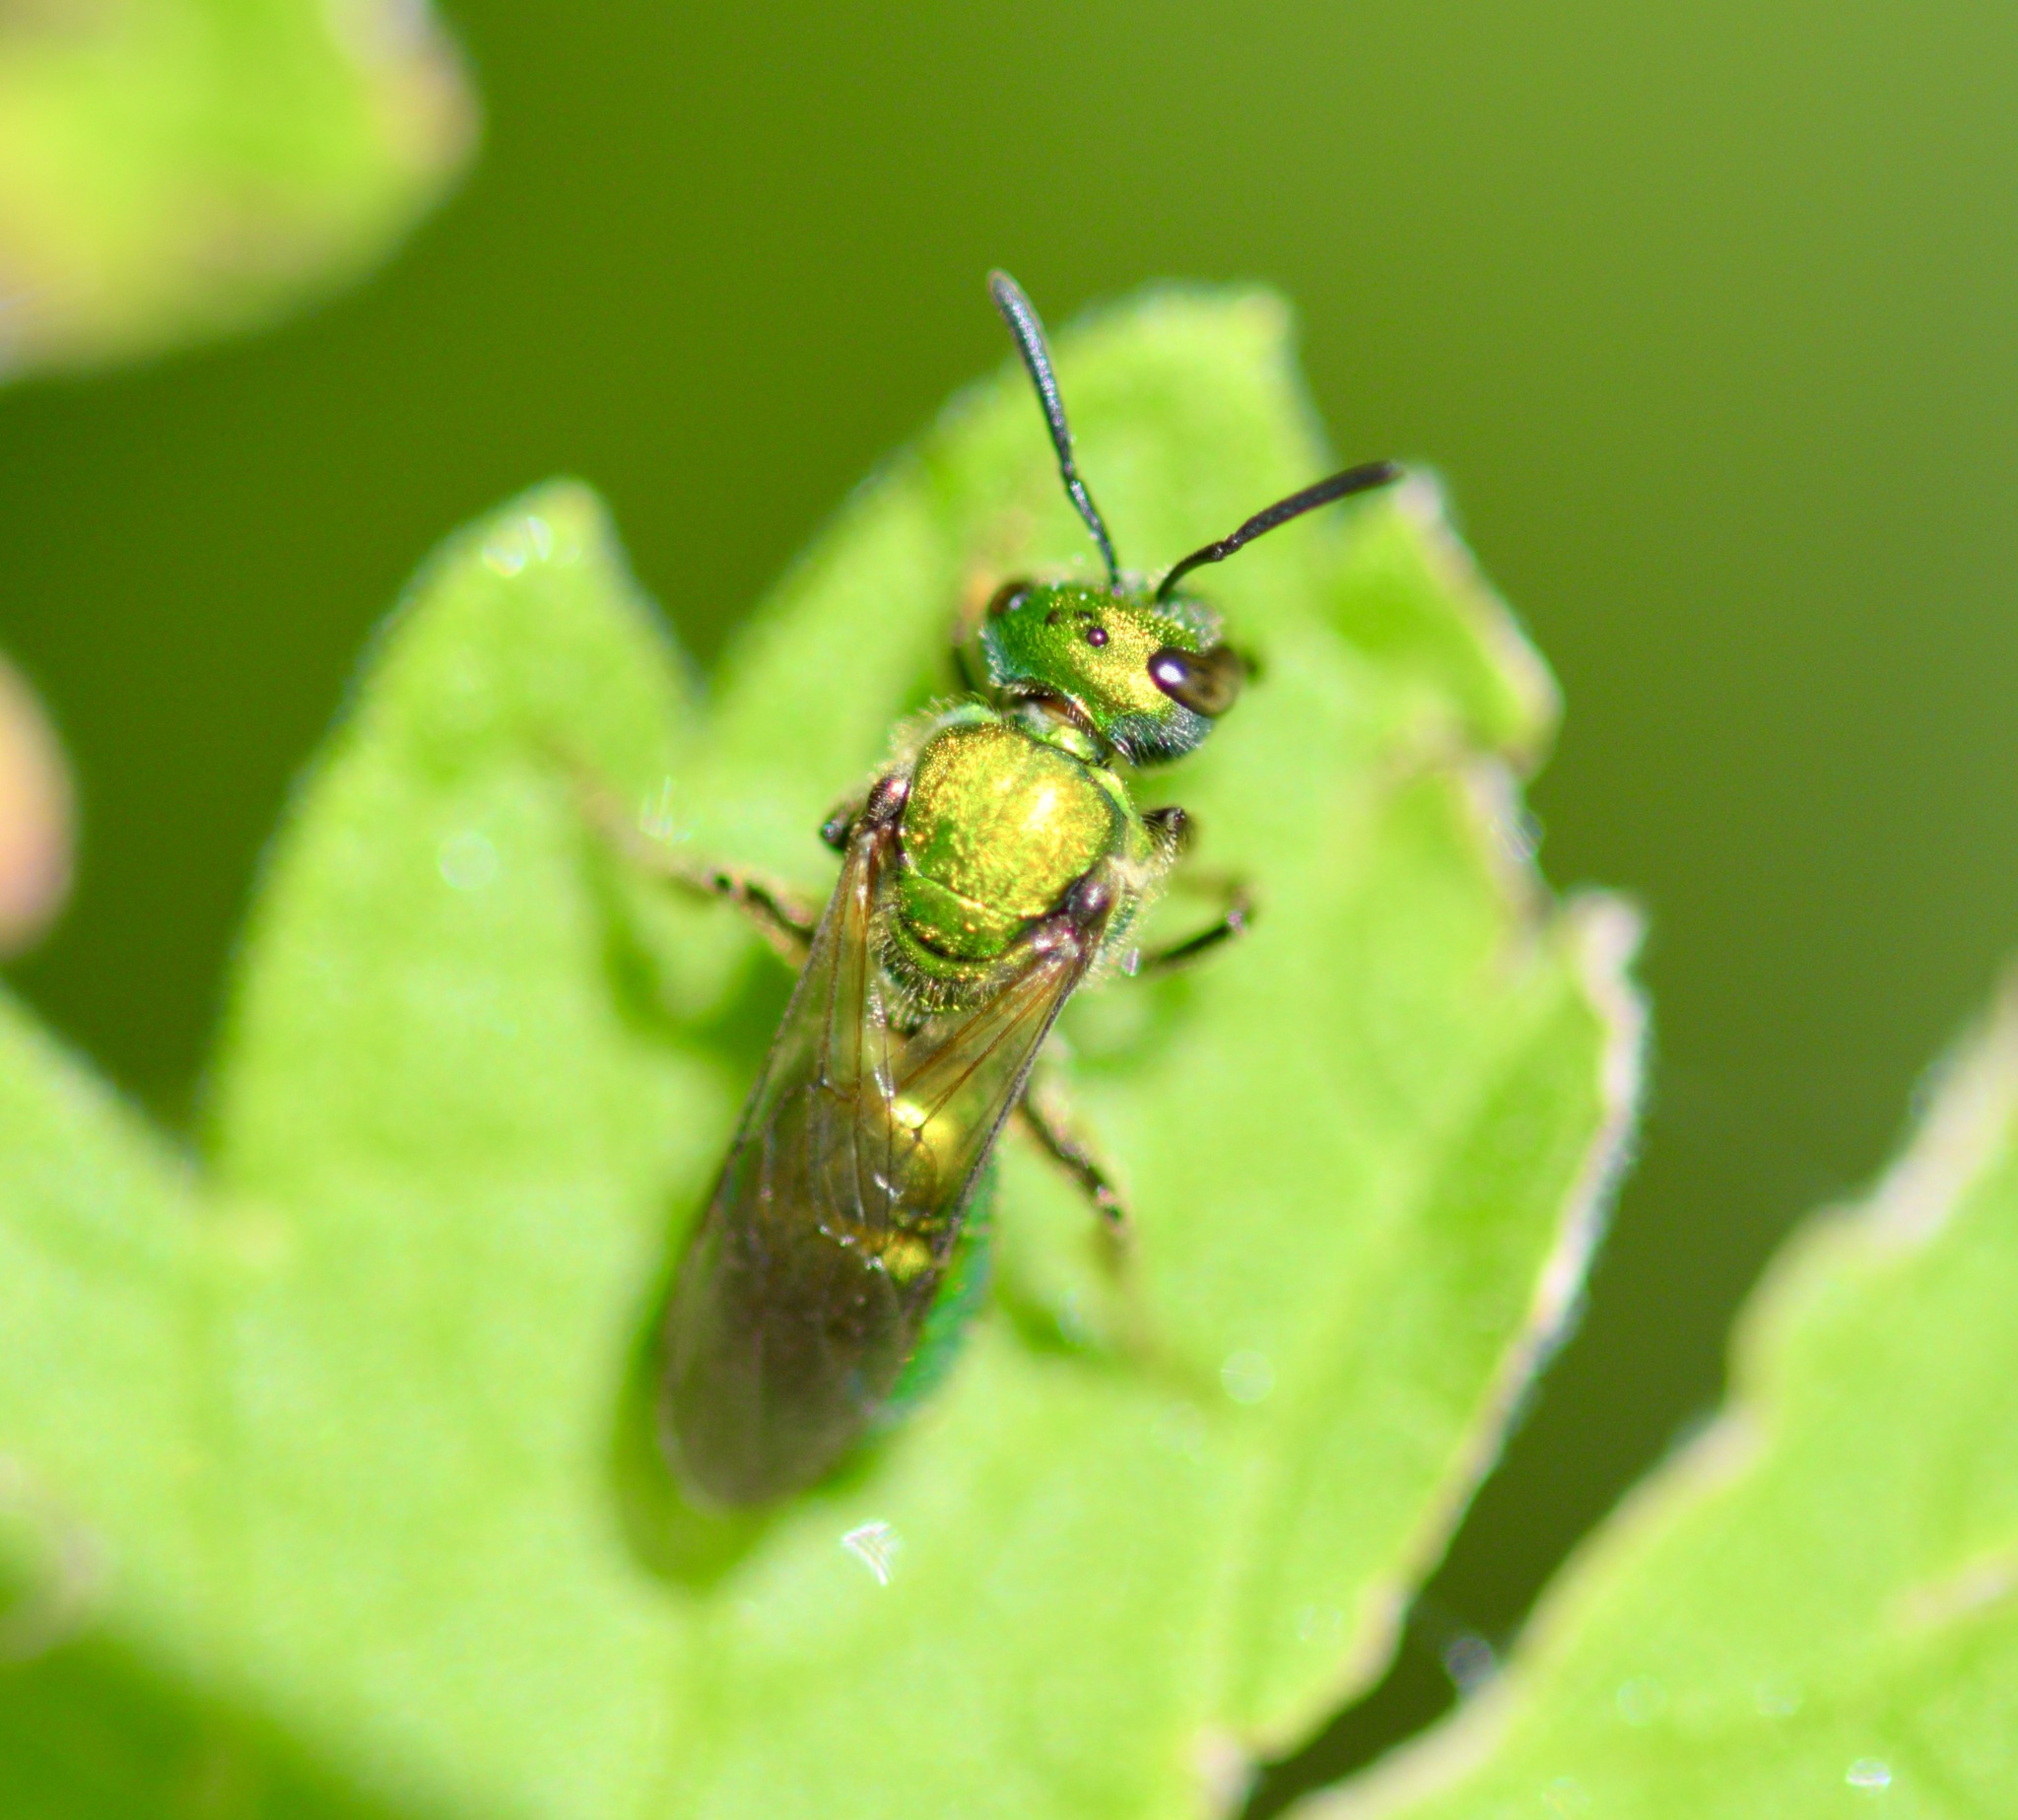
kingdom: Animalia
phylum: Arthropoda
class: Insecta
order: Hymenoptera
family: Halictidae
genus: Augochlora
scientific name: Augochlora pura
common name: Pure green sweat bee
